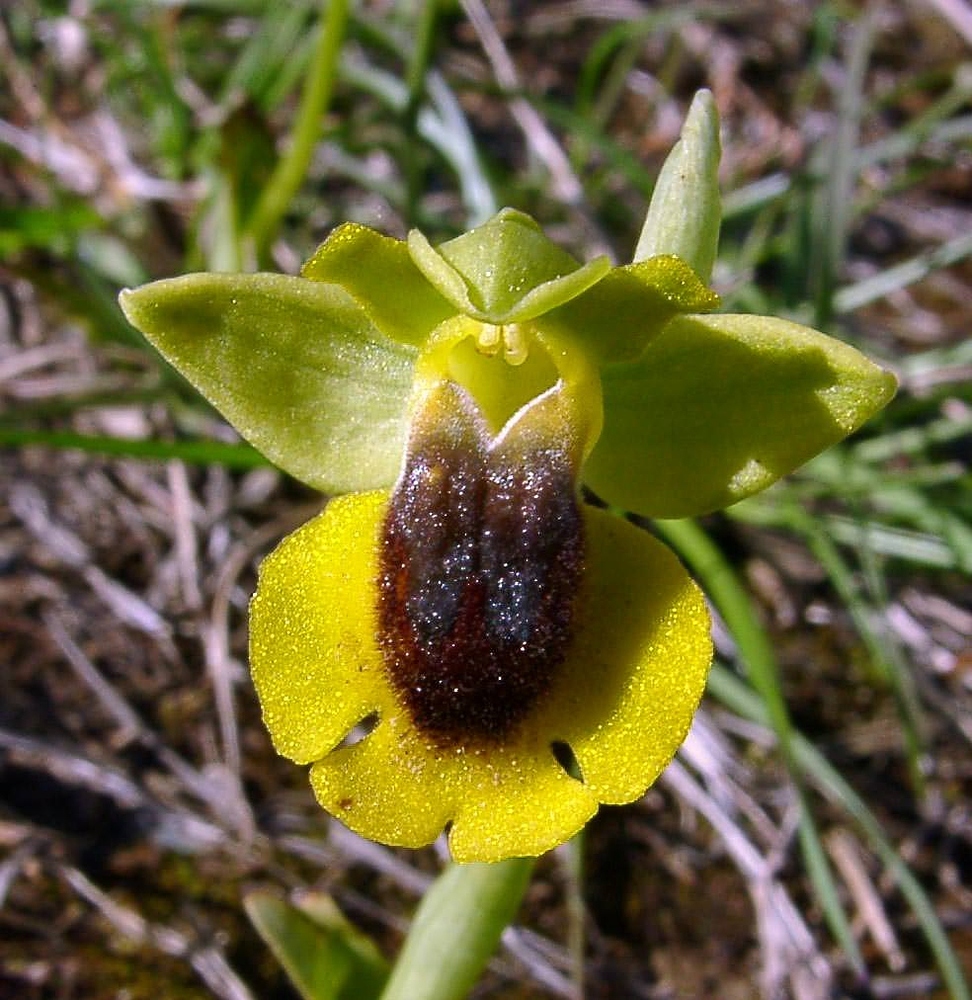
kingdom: Plantae
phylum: Tracheophyta
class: Liliopsida
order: Asparagales
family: Orchidaceae
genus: Ophrys
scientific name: Ophrys lutea
